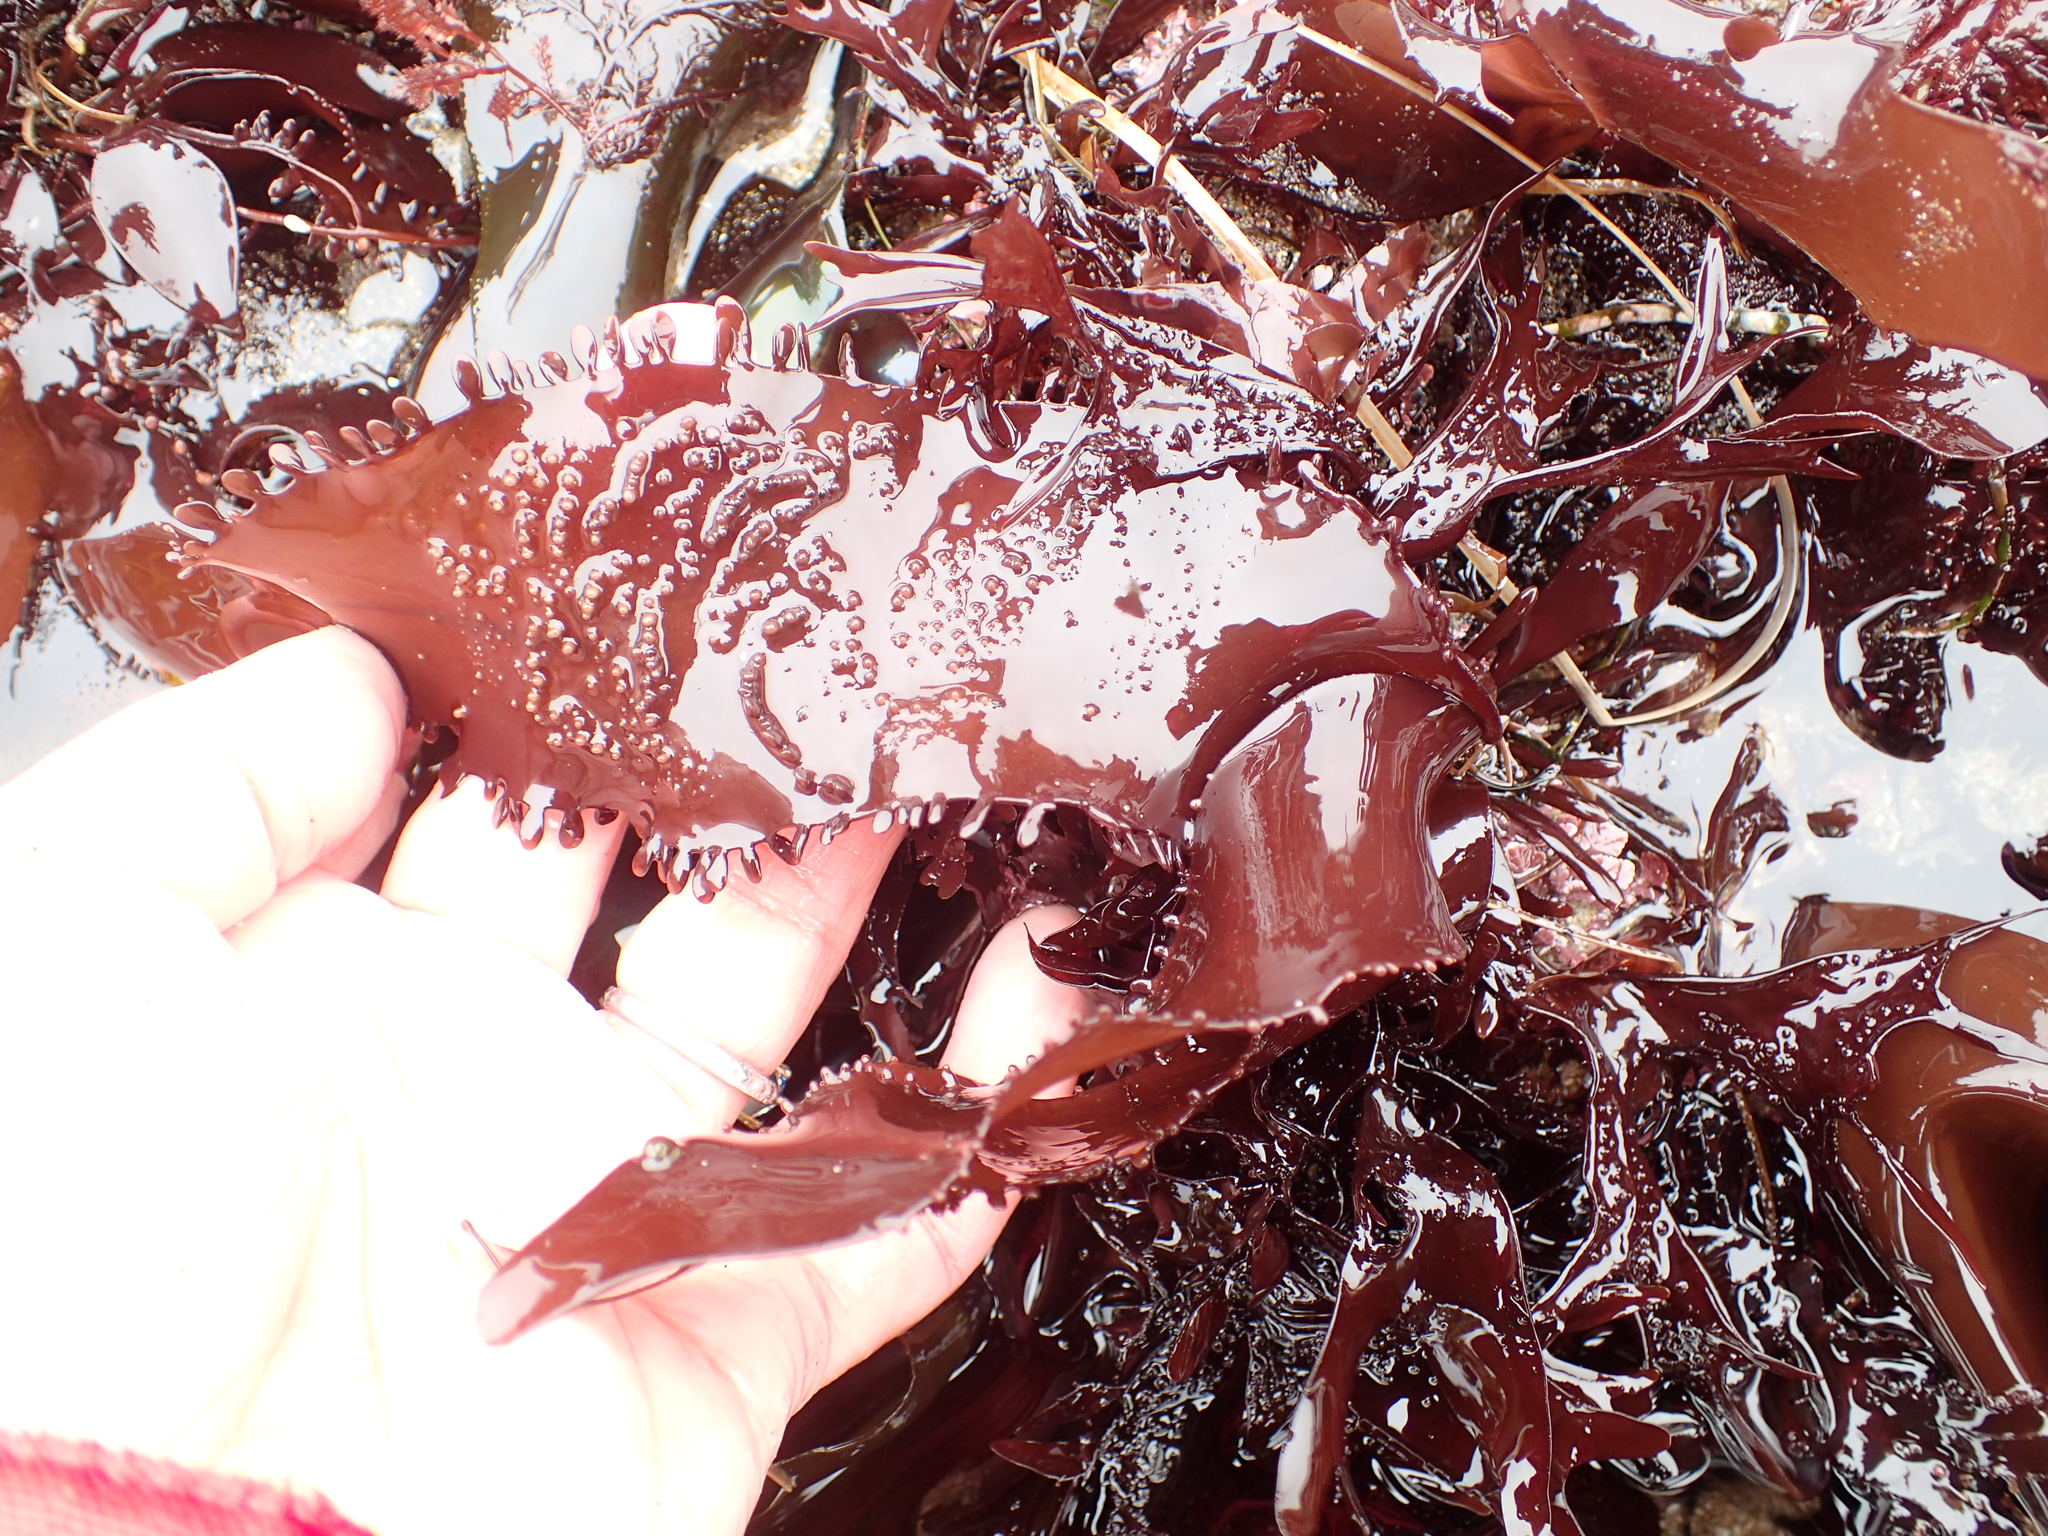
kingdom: Plantae
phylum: Rhodophyta
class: Florideophyceae
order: Gigartinales
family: Gigartinaceae
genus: Chondracanthus
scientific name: Chondracanthus spinosus
